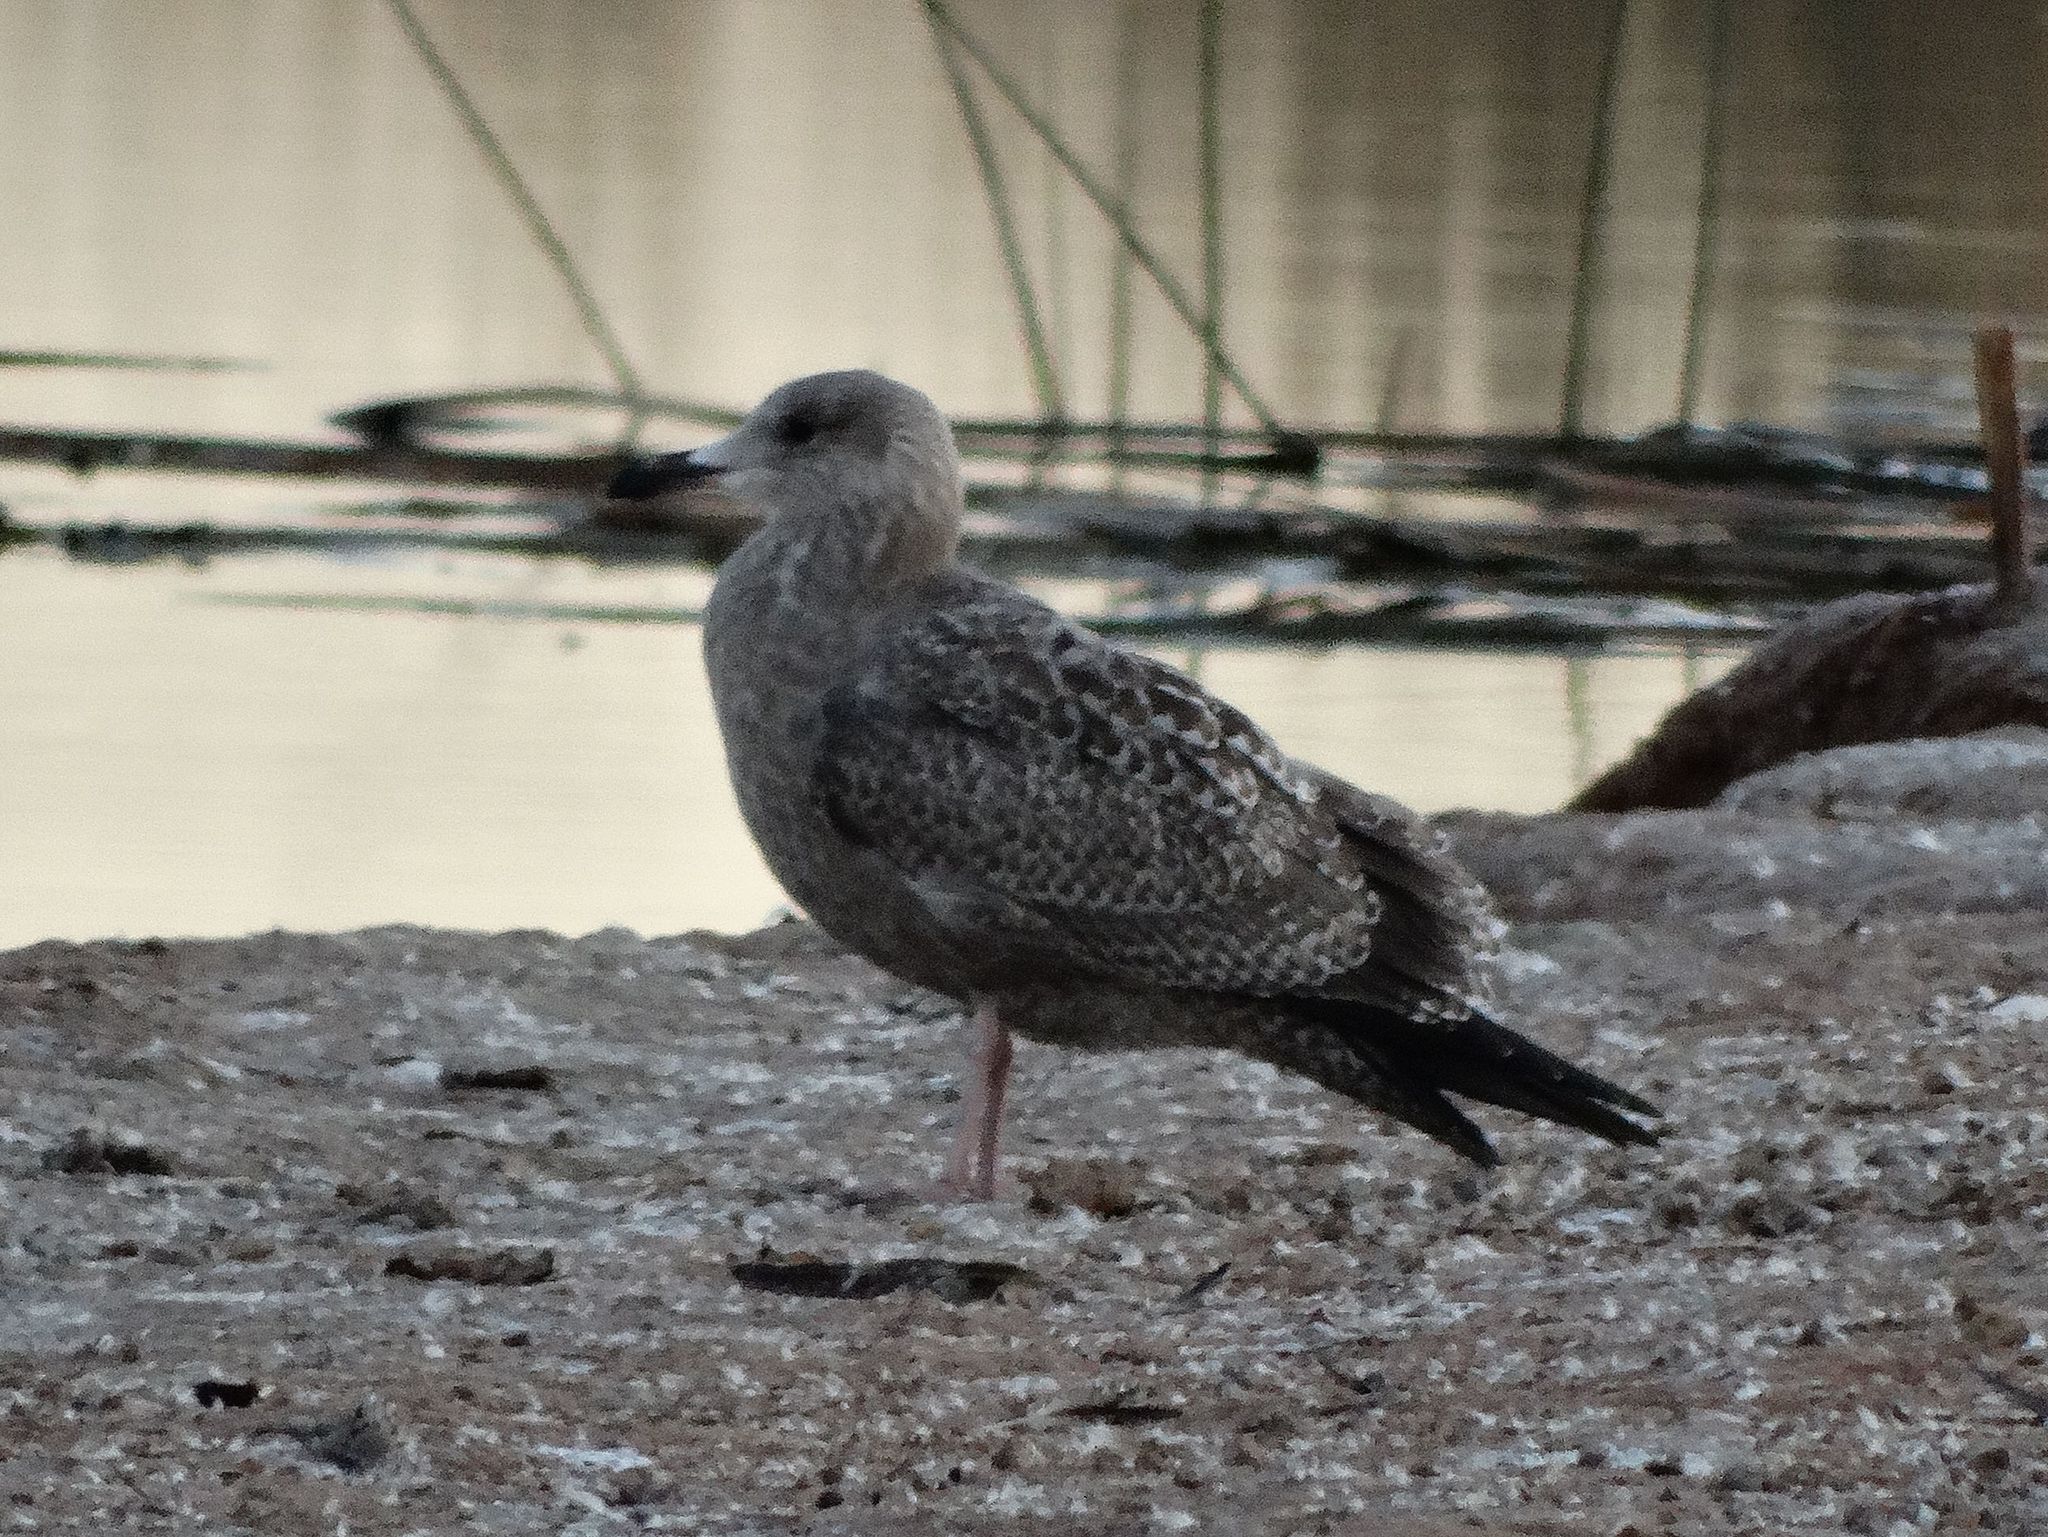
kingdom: Animalia
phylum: Chordata
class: Aves
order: Charadriiformes
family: Laridae
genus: Larus
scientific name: Larus argentatus
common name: Herring gull
